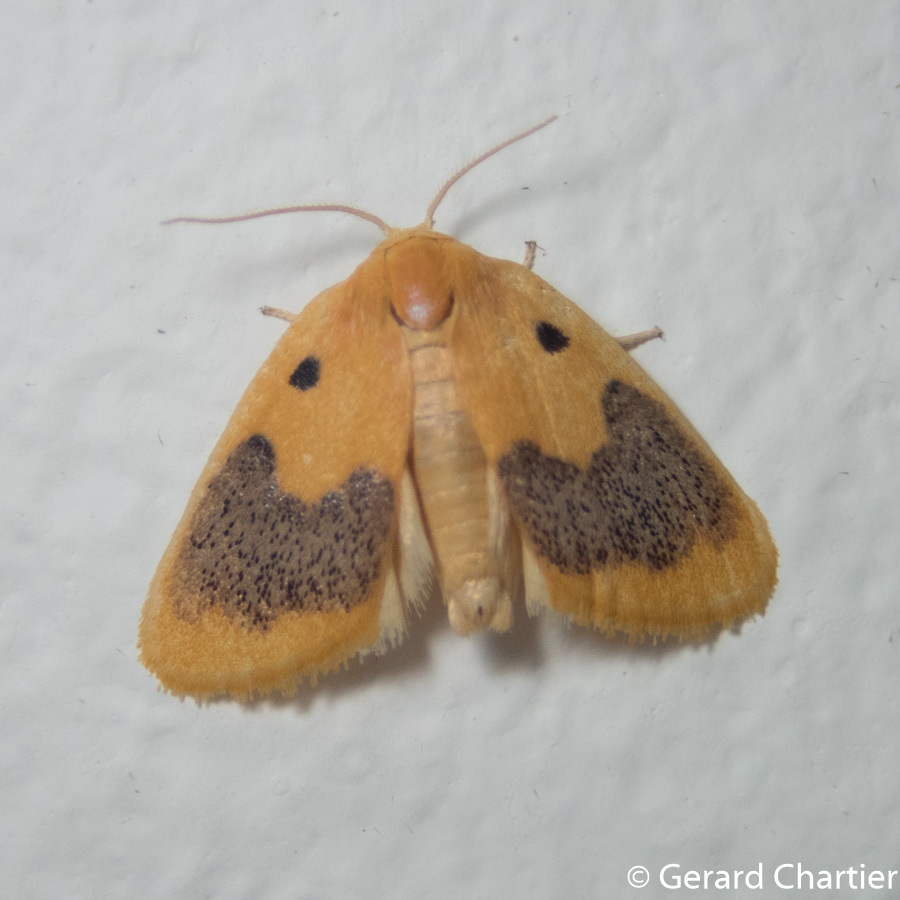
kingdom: Animalia
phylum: Arthropoda
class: Insecta
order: Lepidoptera
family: Erebidae
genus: Cyclomilta
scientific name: Cyclomilta cambodiaca
